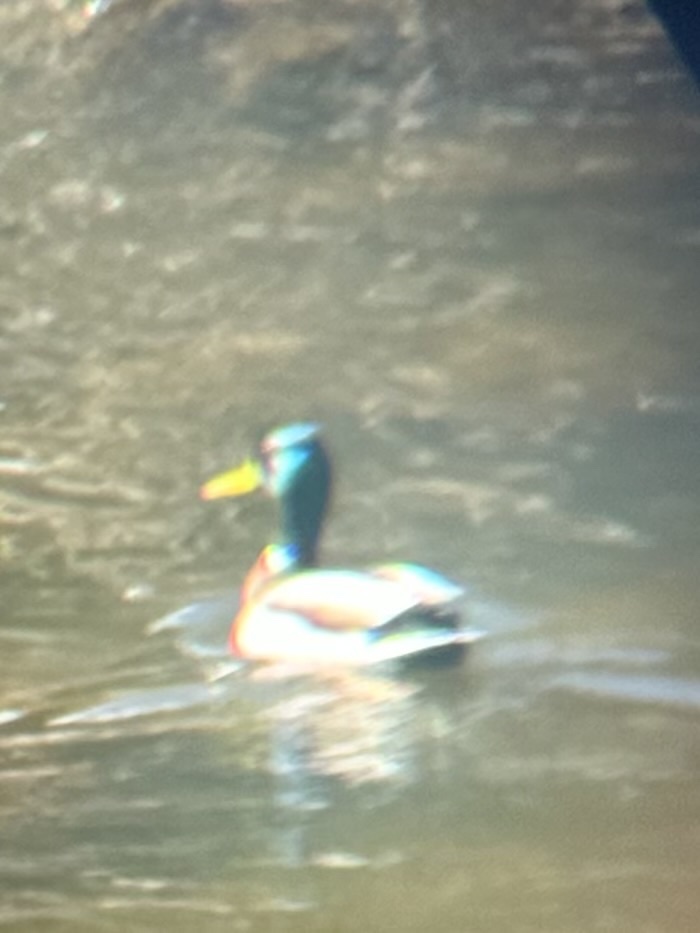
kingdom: Animalia
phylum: Chordata
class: Aves
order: Anseriformes
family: Anatidae
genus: Anas
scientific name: Anas platyrhynchos
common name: Mallard
